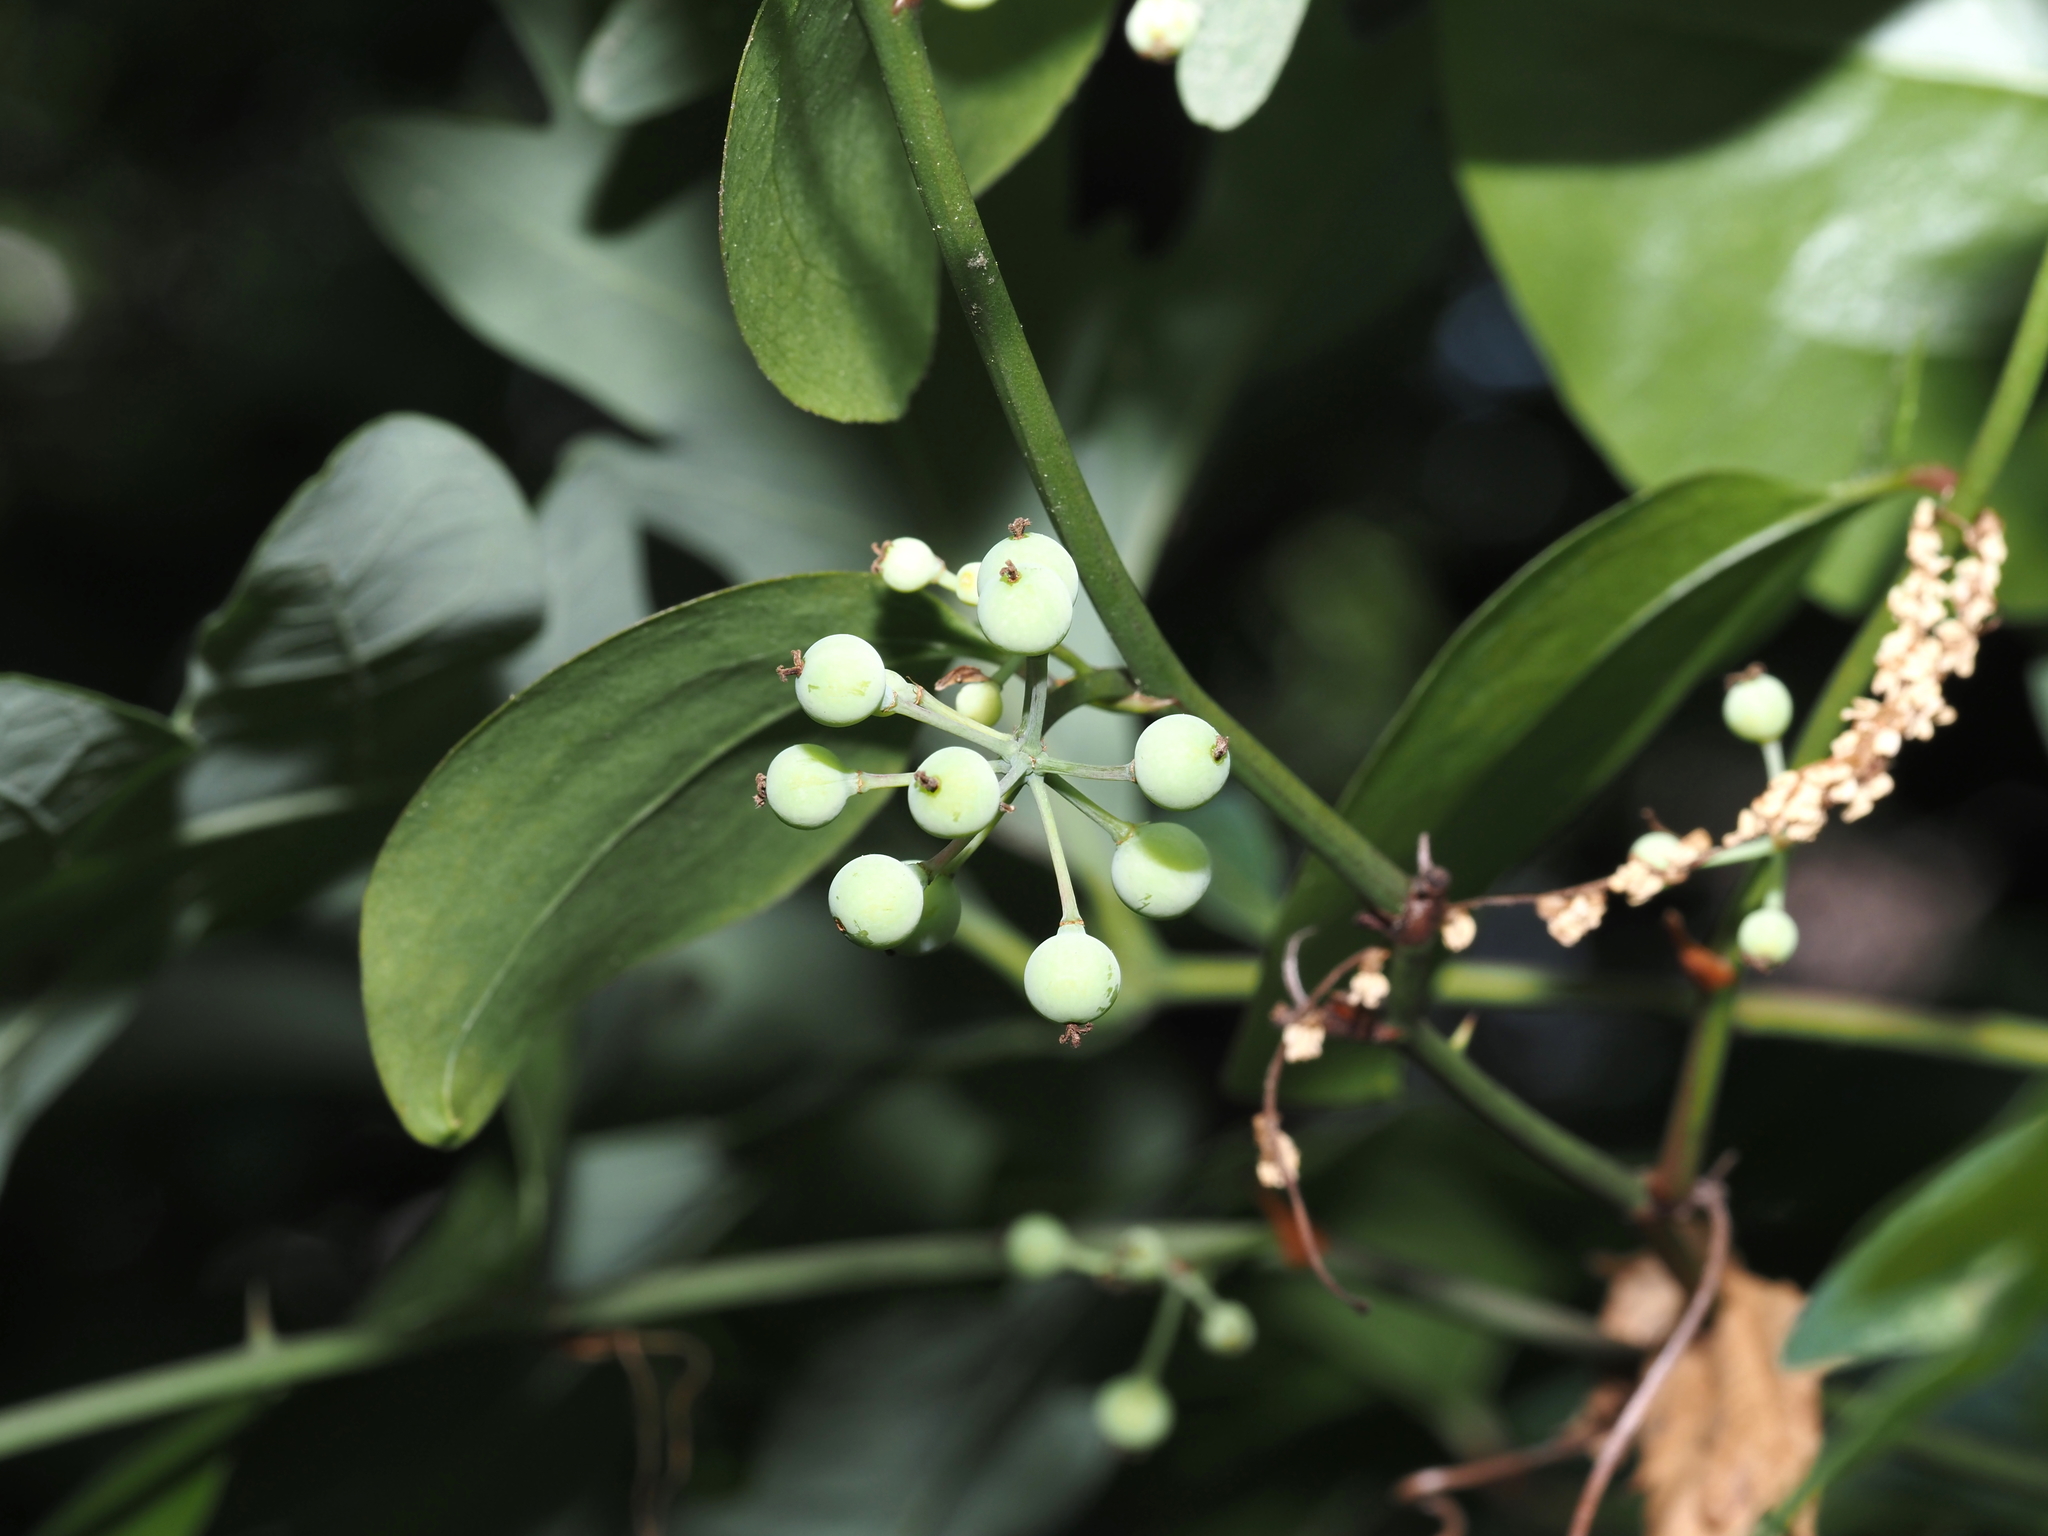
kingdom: Plantae
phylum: Tracheophyta
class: Liliopsida
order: Liliales
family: Smilacaceae
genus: Smilax
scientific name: Smilax rotundifolia
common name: Bullbriar
